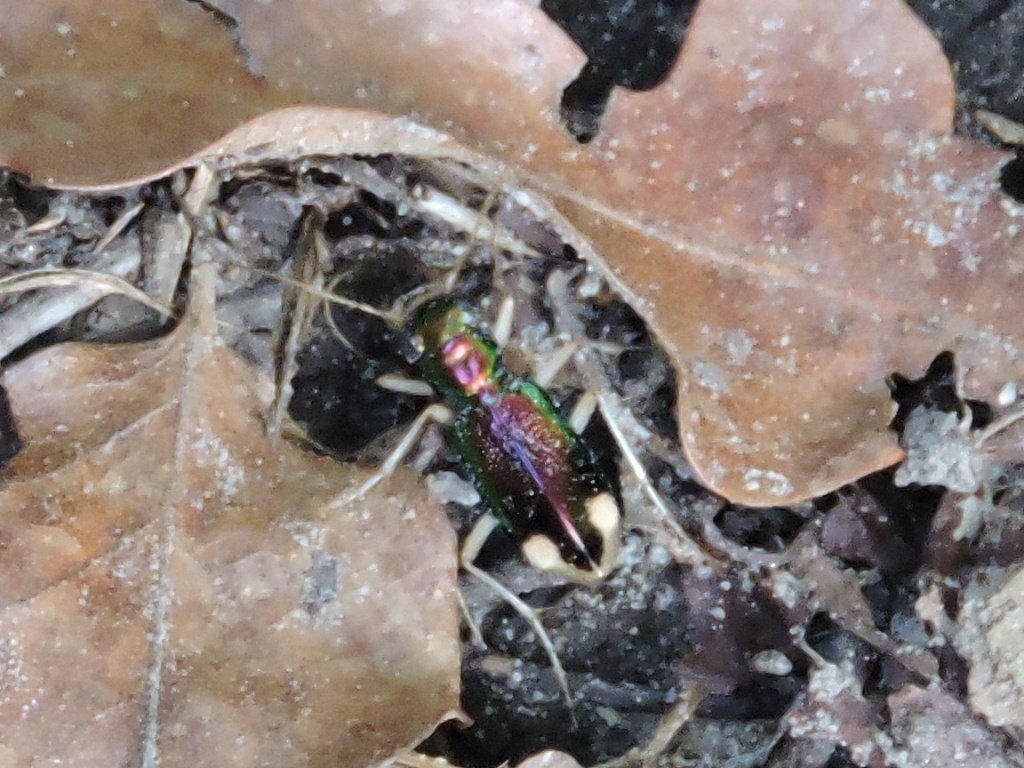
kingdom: Animalia
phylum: Arthropoda
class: Insecta
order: Coleoptera
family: Carabidae
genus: Tetracha
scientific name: Tetracha carolina
